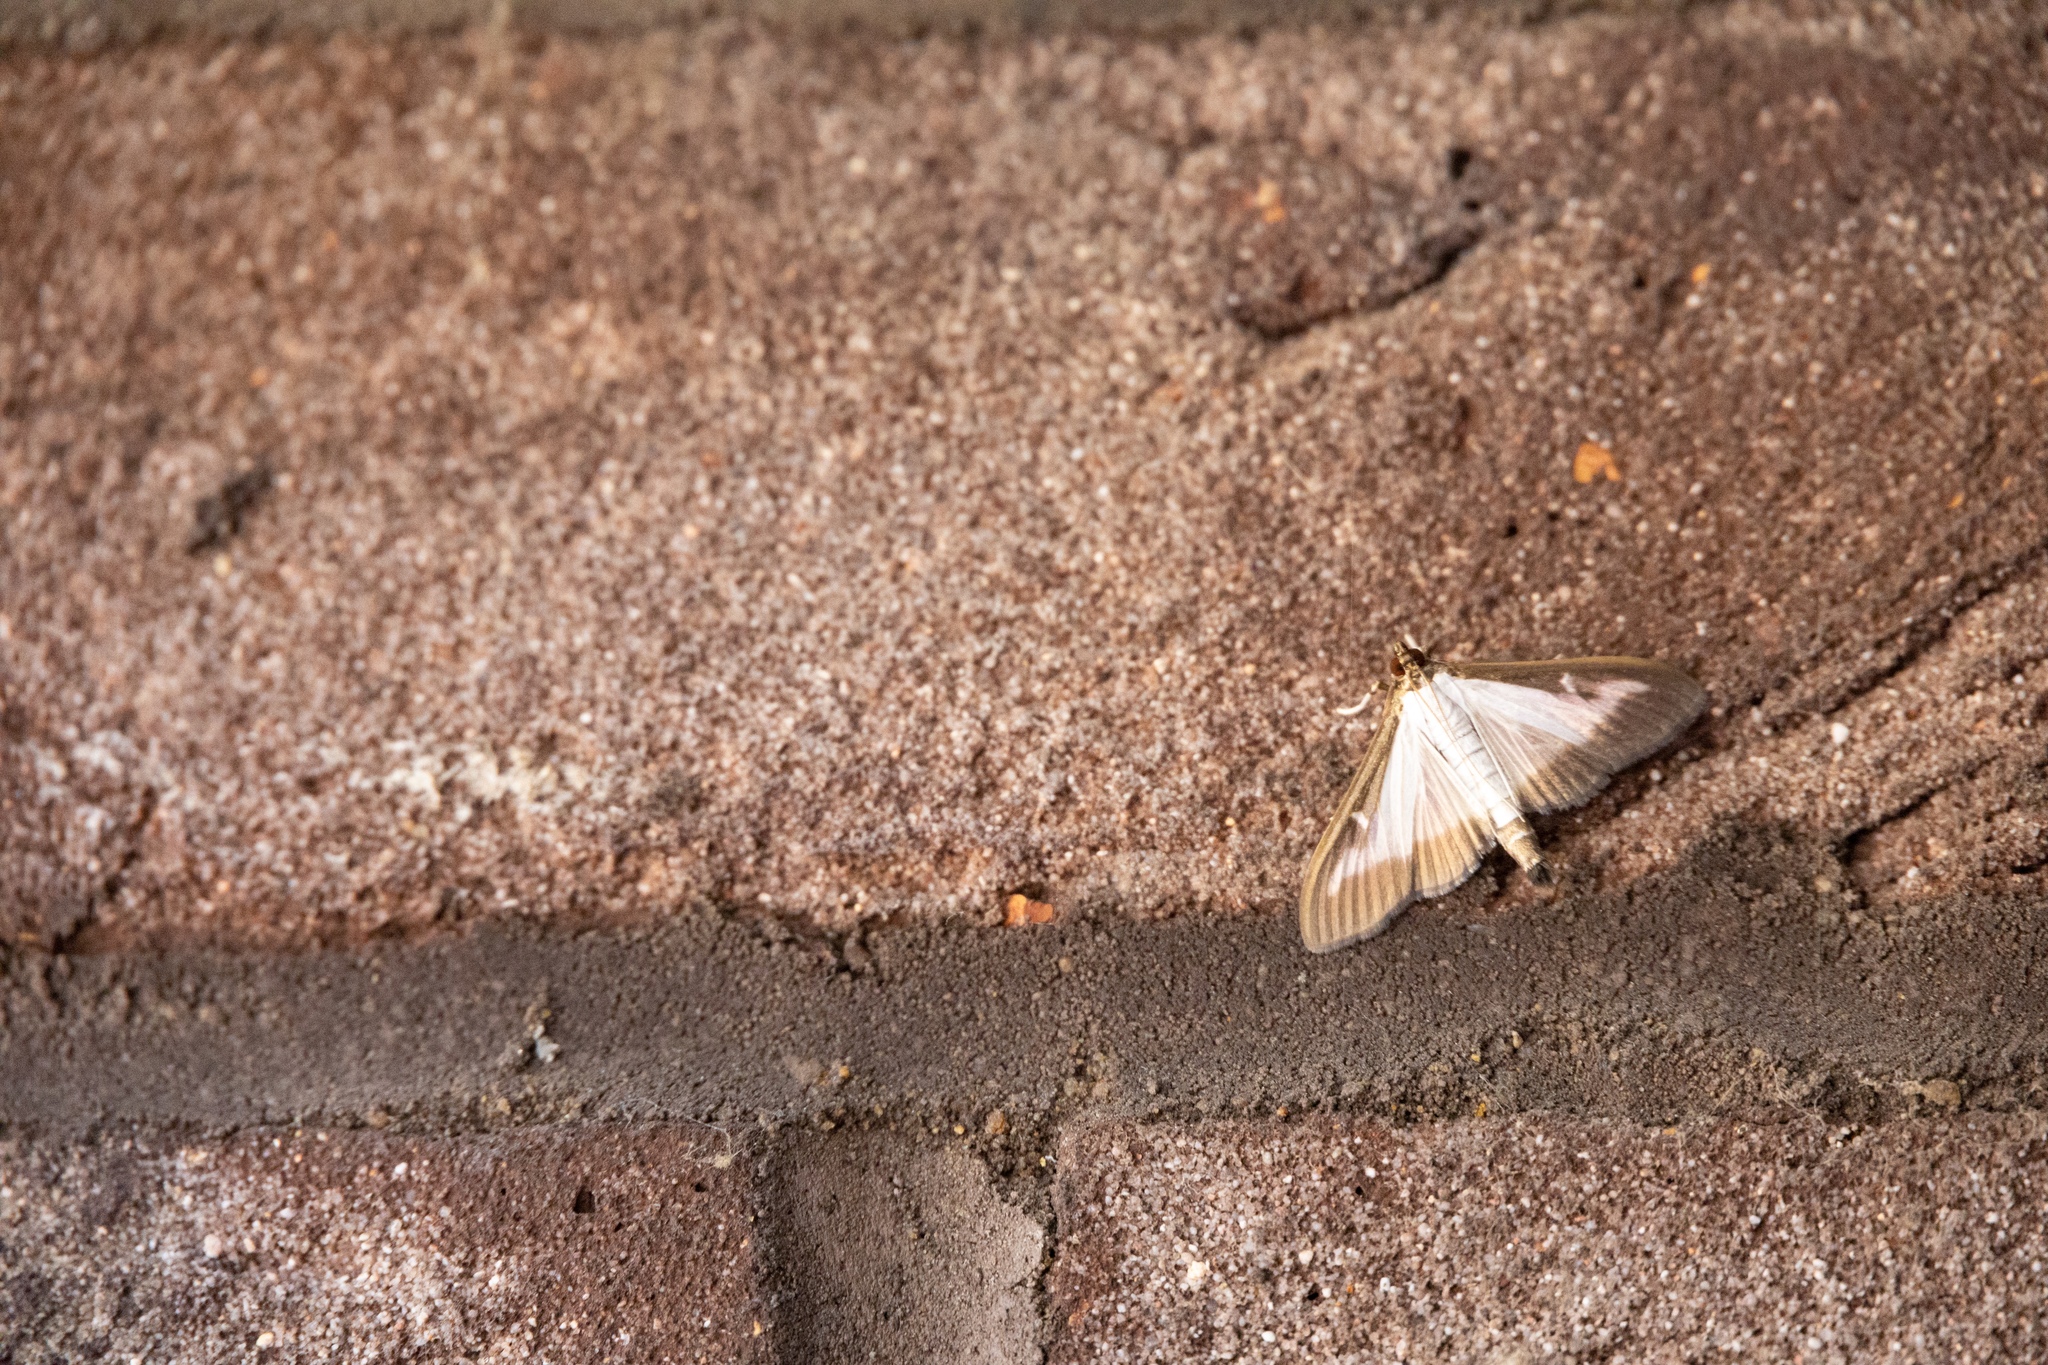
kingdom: Animalia
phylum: Arthropoda
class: Insecta
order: Lepidoptera
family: Crambidae
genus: Cydalima
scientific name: Cydalima perspectalis
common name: Box tree moth
